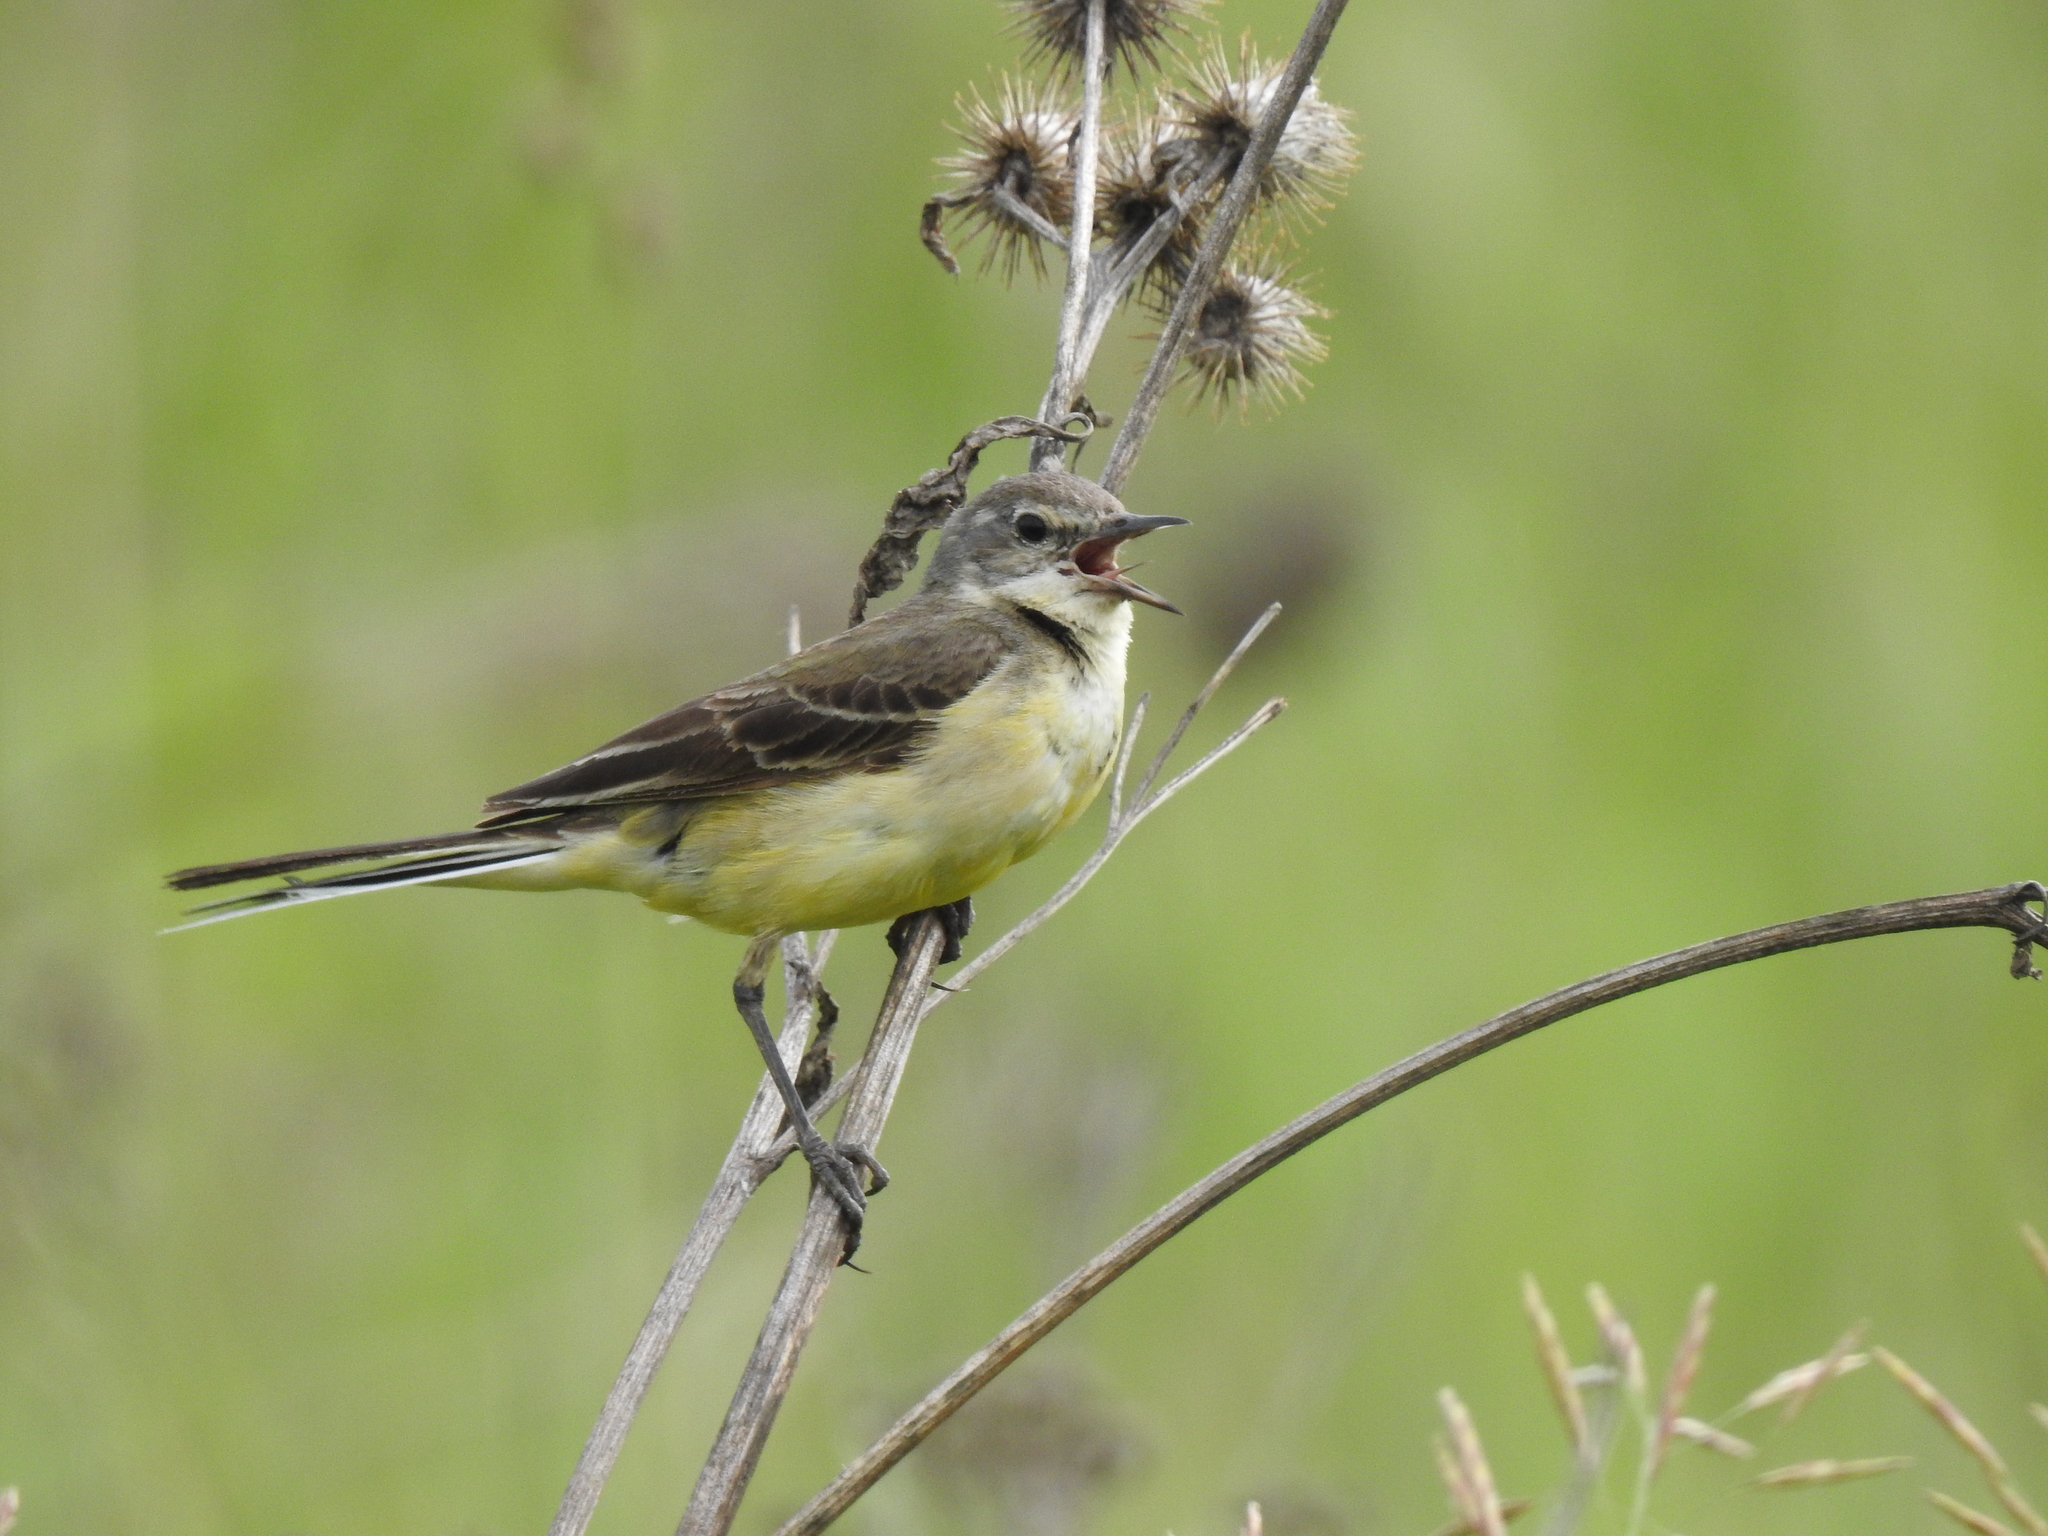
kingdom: Animalia
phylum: Chordata
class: Aves
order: Passeriformes
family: Motacillidae
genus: Motacilla
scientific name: Motacilla flava
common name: Western yellow wagtail
